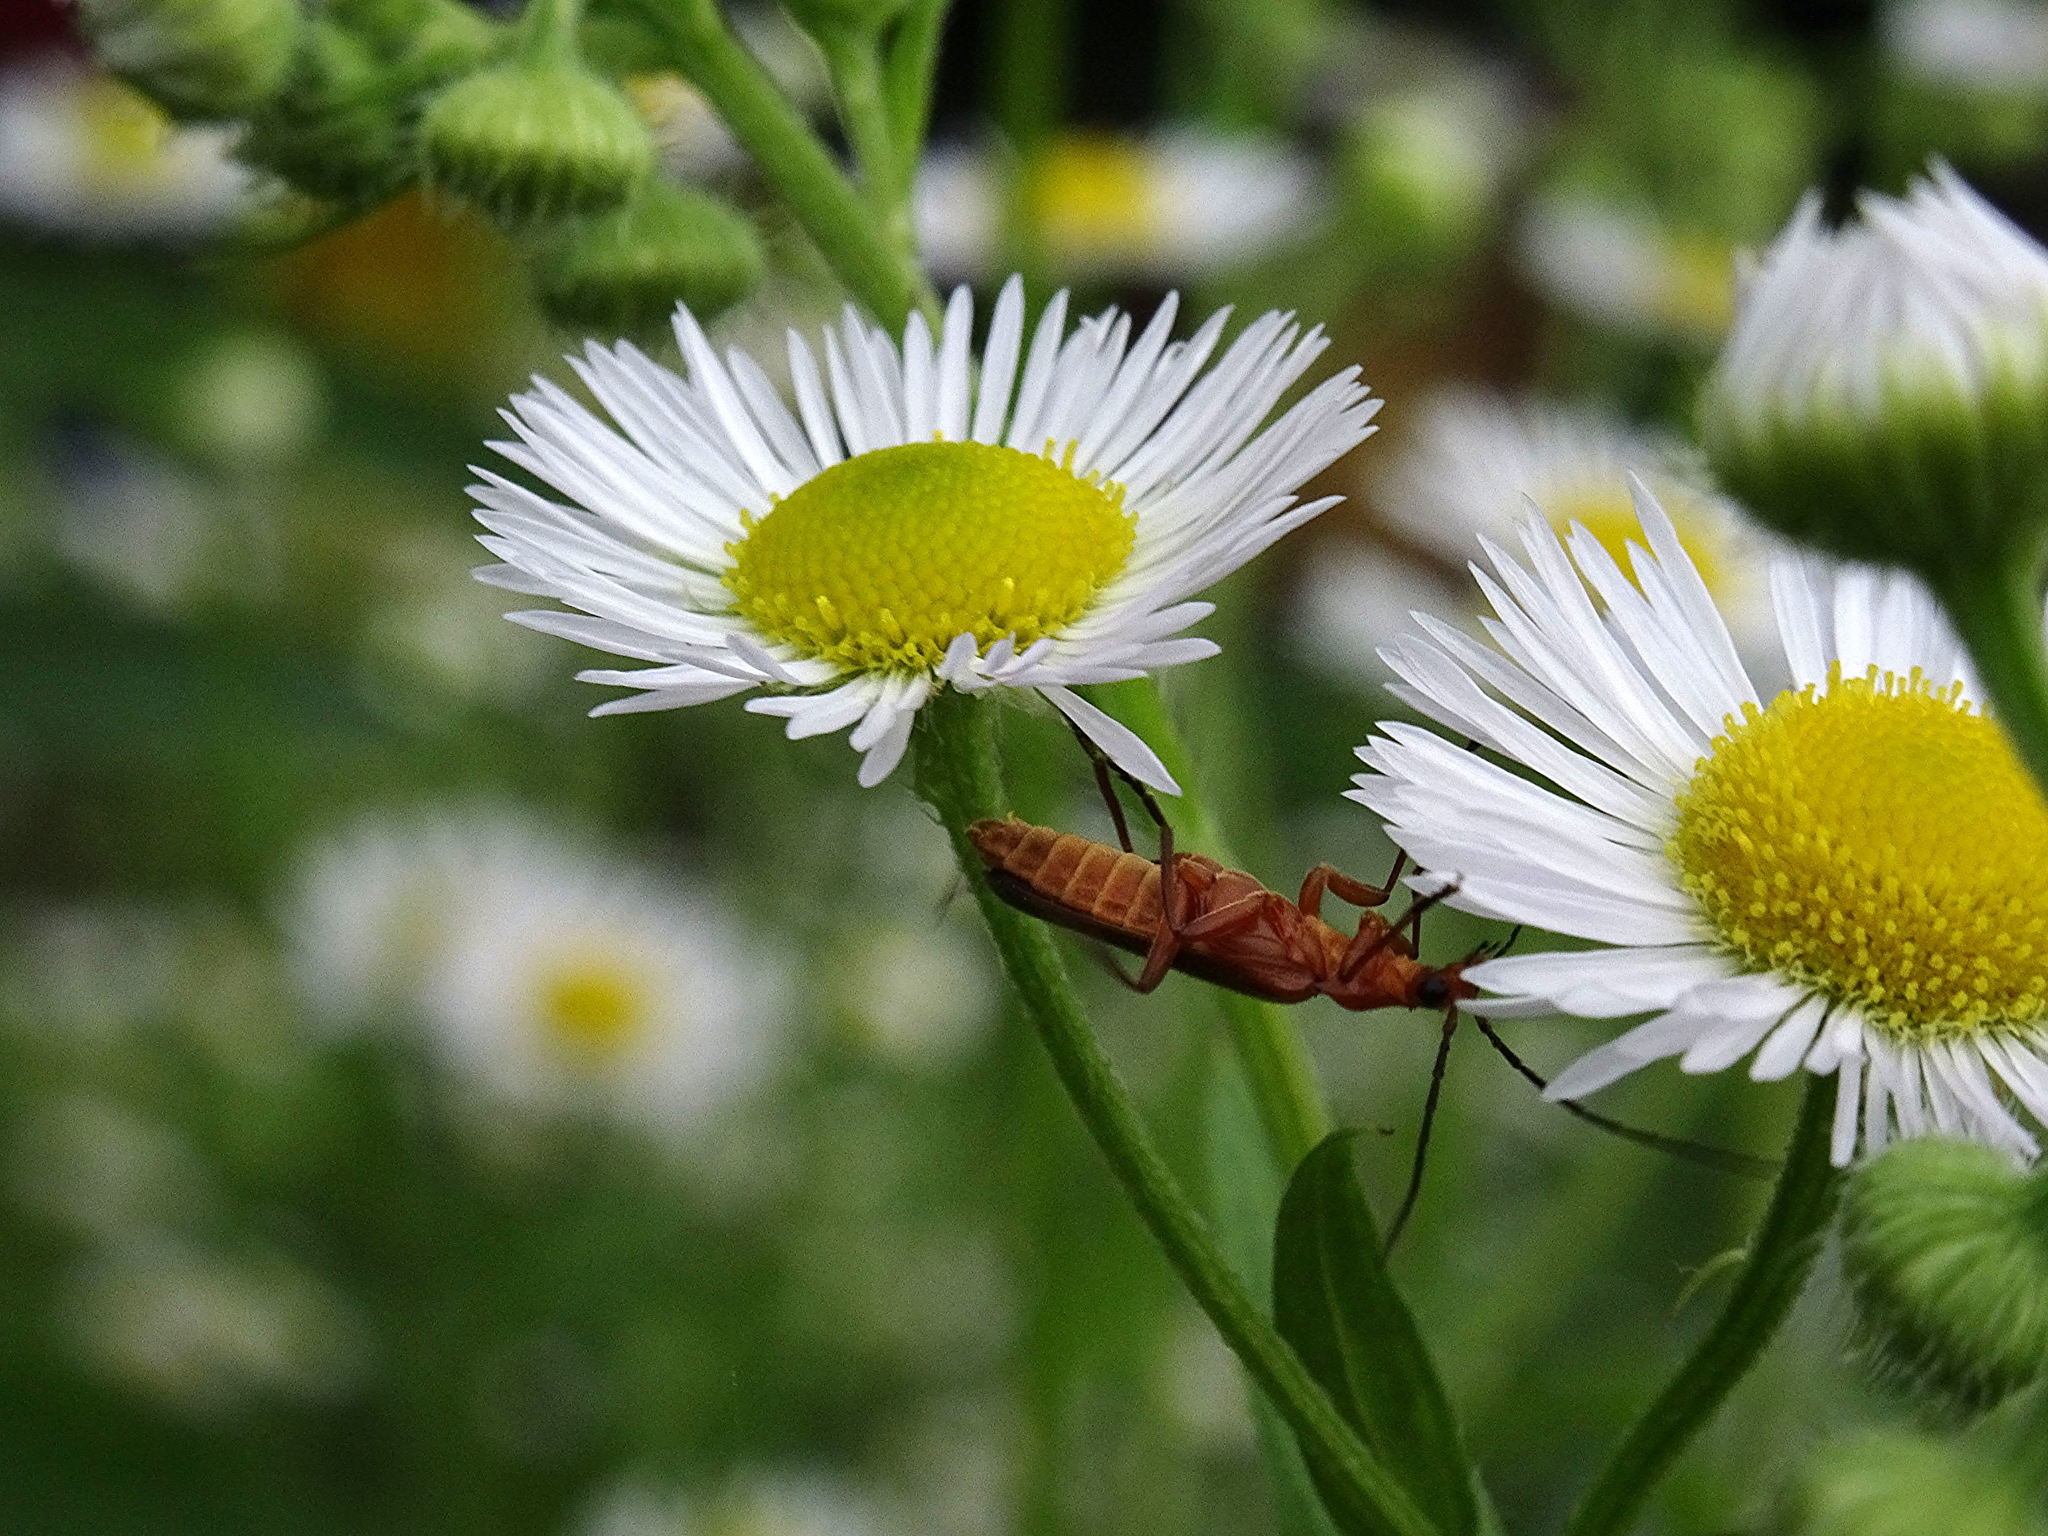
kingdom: Animalia
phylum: Arthropoda
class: Insecta
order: Coleoptera
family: Cantharidae
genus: Rhagonycha
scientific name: Rhagonycha fulva
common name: Common red soldier beetle
